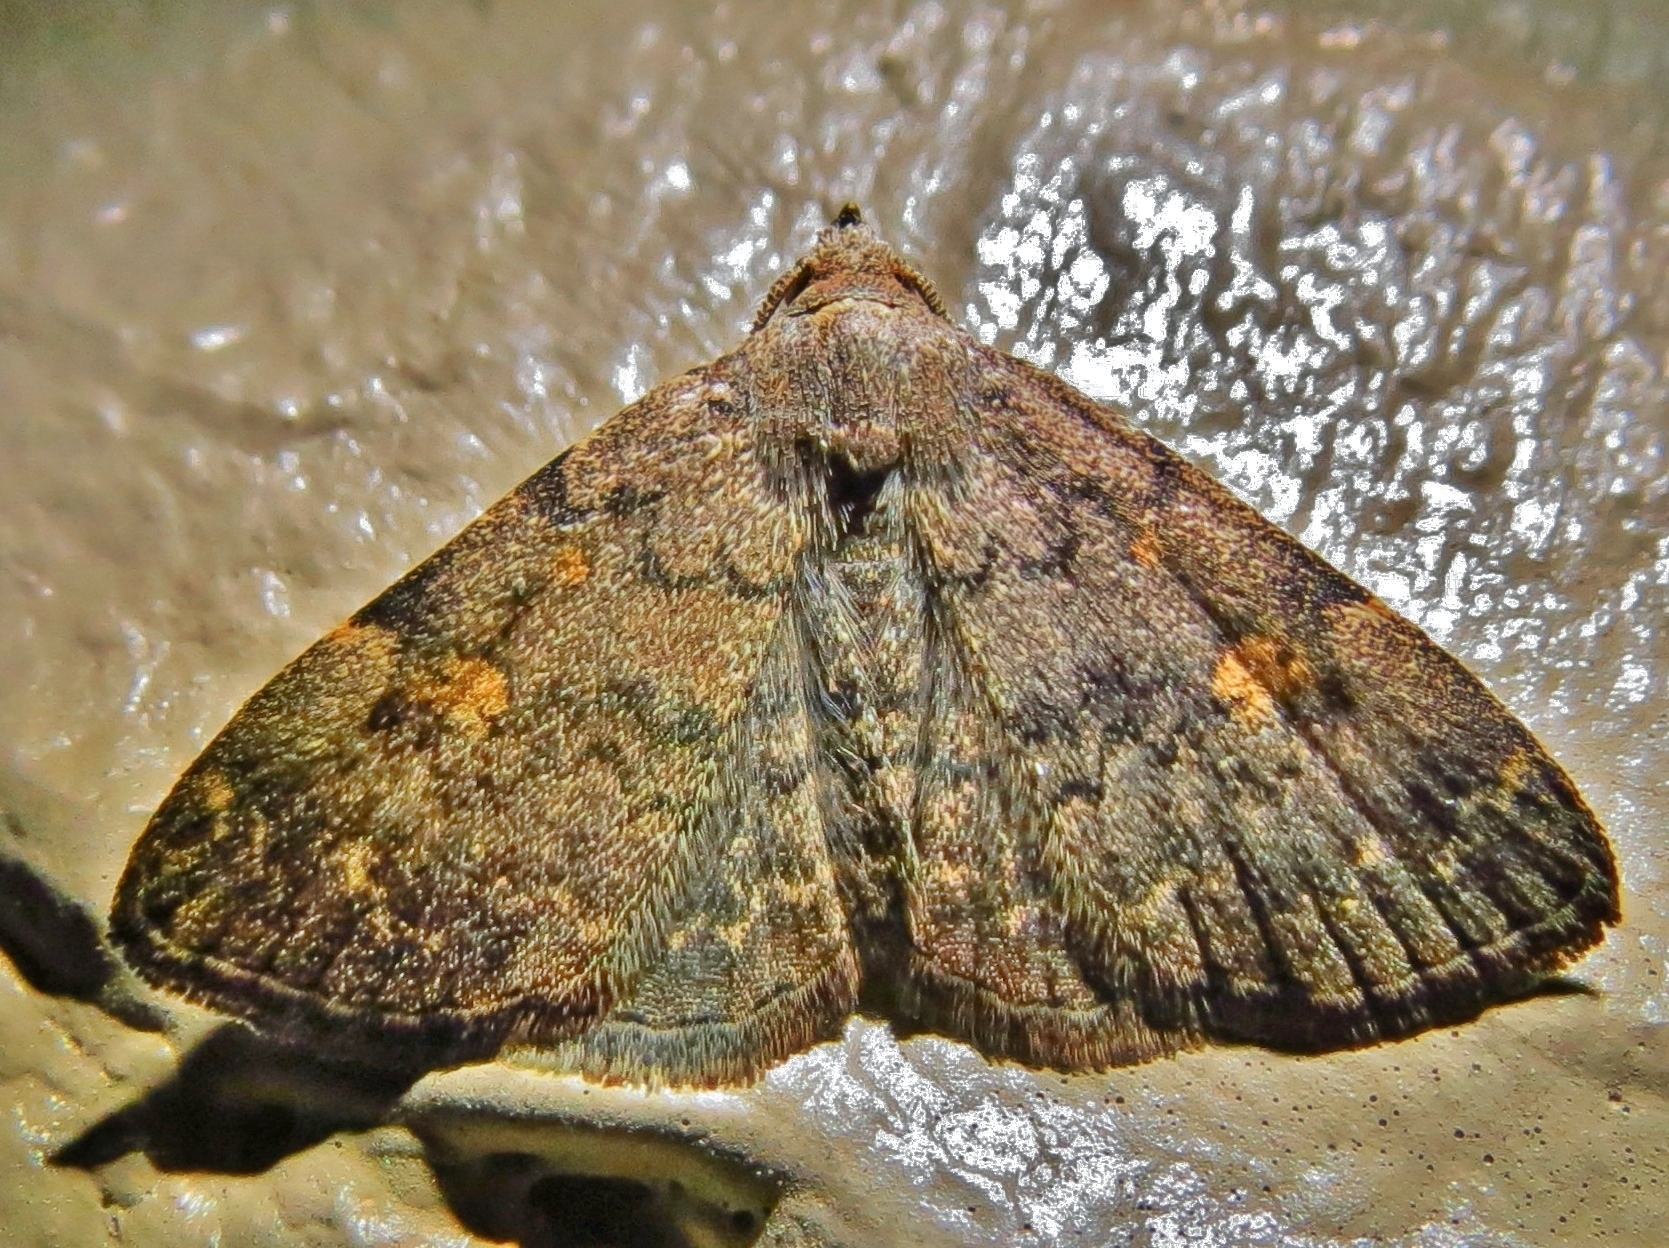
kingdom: Animalia
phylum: Arthropoda
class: Insecta
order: Lepidoptera
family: Erebidae
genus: Idia
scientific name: Idia aemula
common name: Common idia moth
